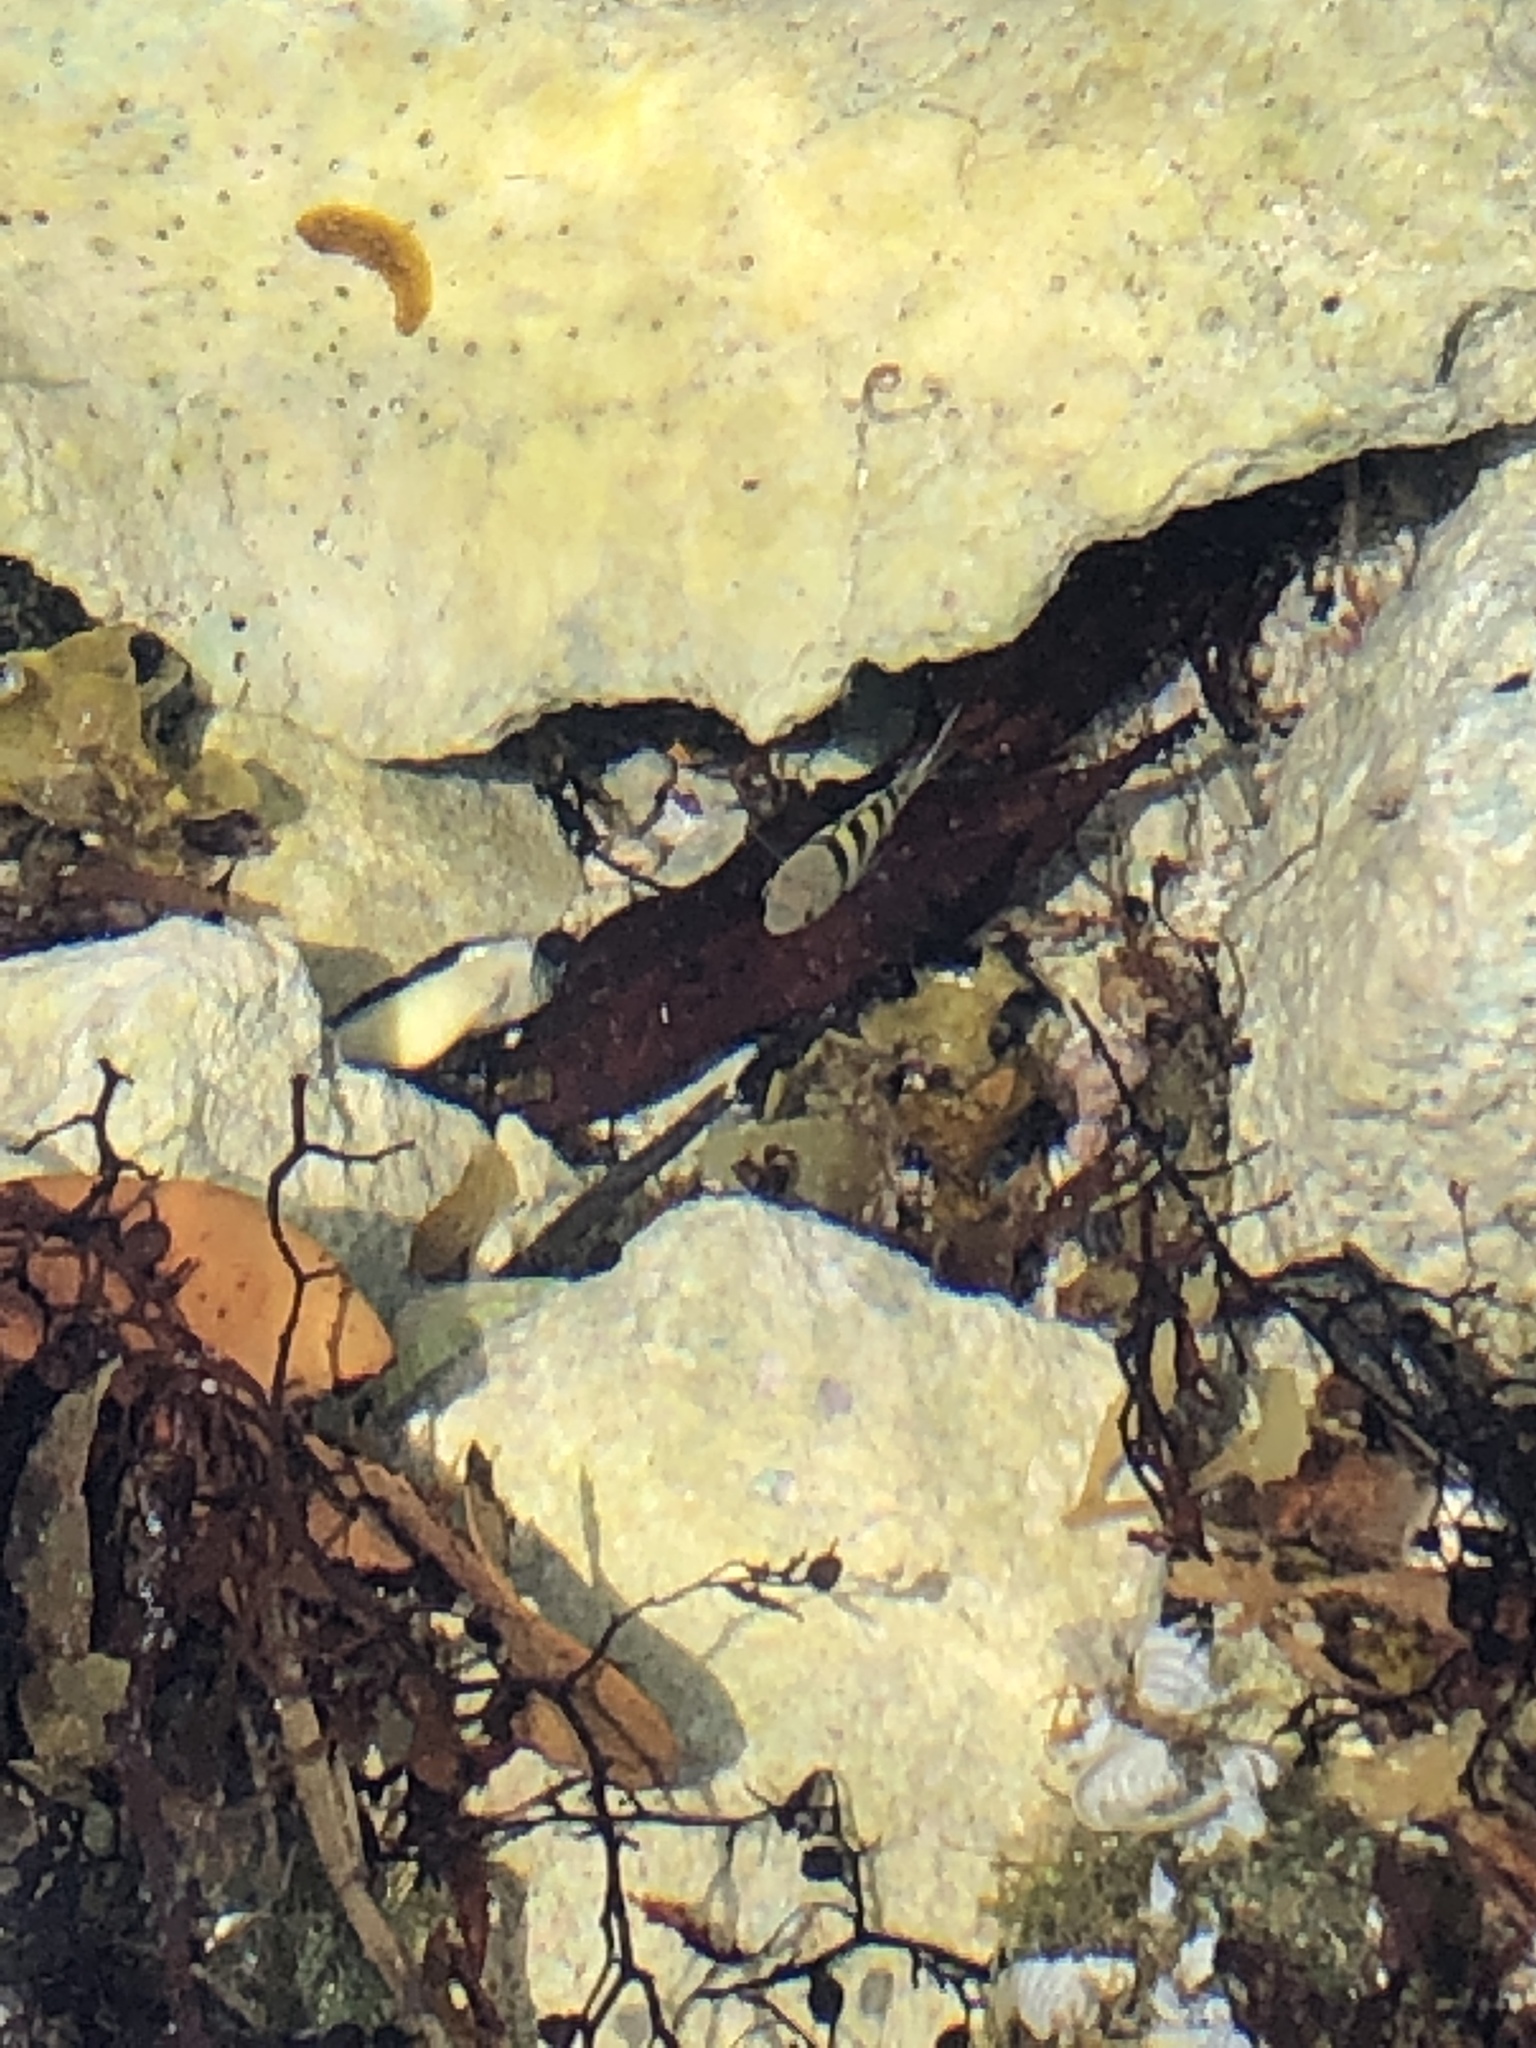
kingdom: Animalia
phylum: Chordata
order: Perciformes
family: Pomacentridae
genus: Abudefduf
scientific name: Abudefduf saxatilis
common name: Sergeant major
